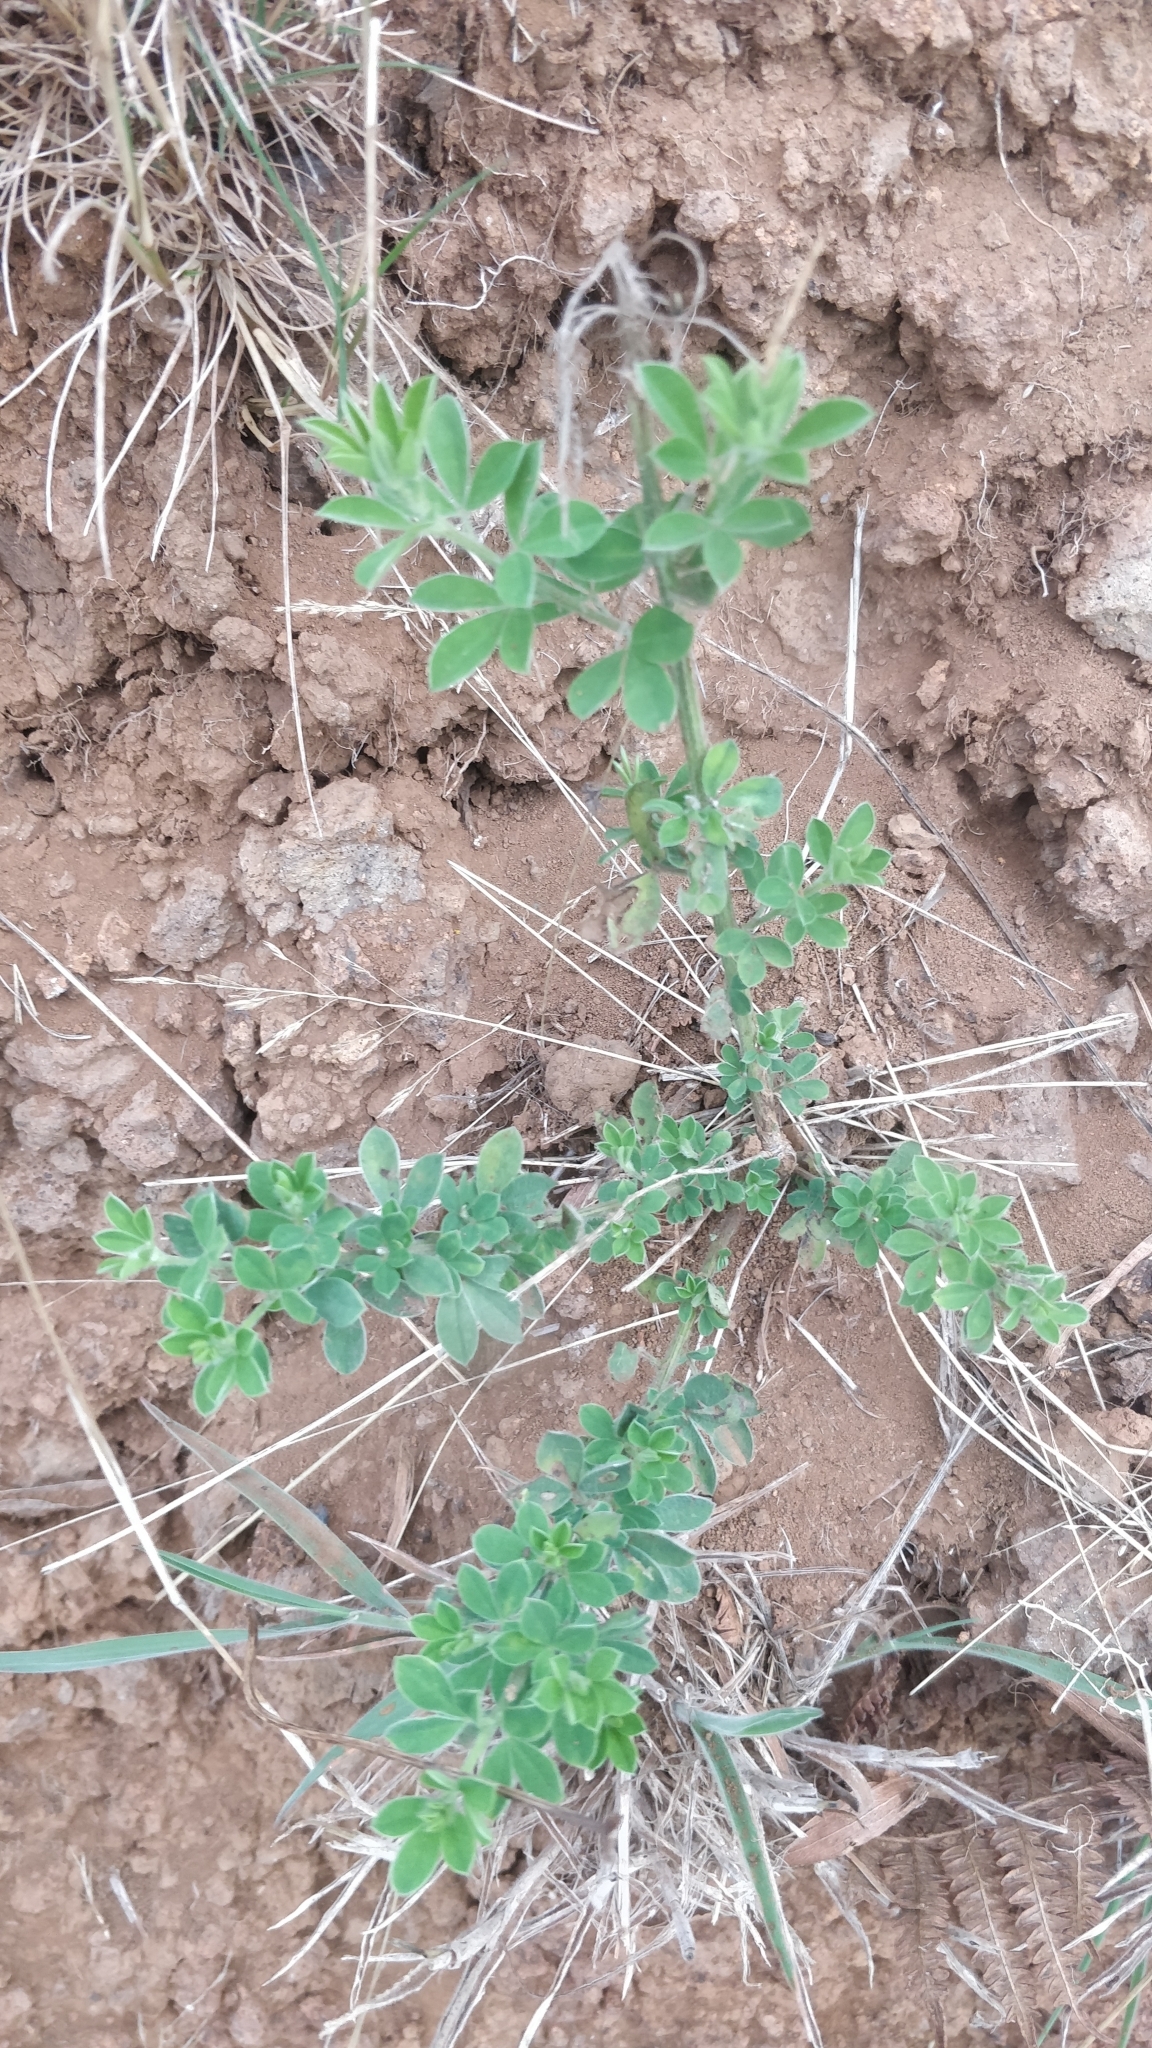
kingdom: Plantae
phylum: Tracheophyta
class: Magnoliopsida
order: Fabales
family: Fabaceae
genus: Genista
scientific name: Genista maderensis
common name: Madeira dyer's greenweed
